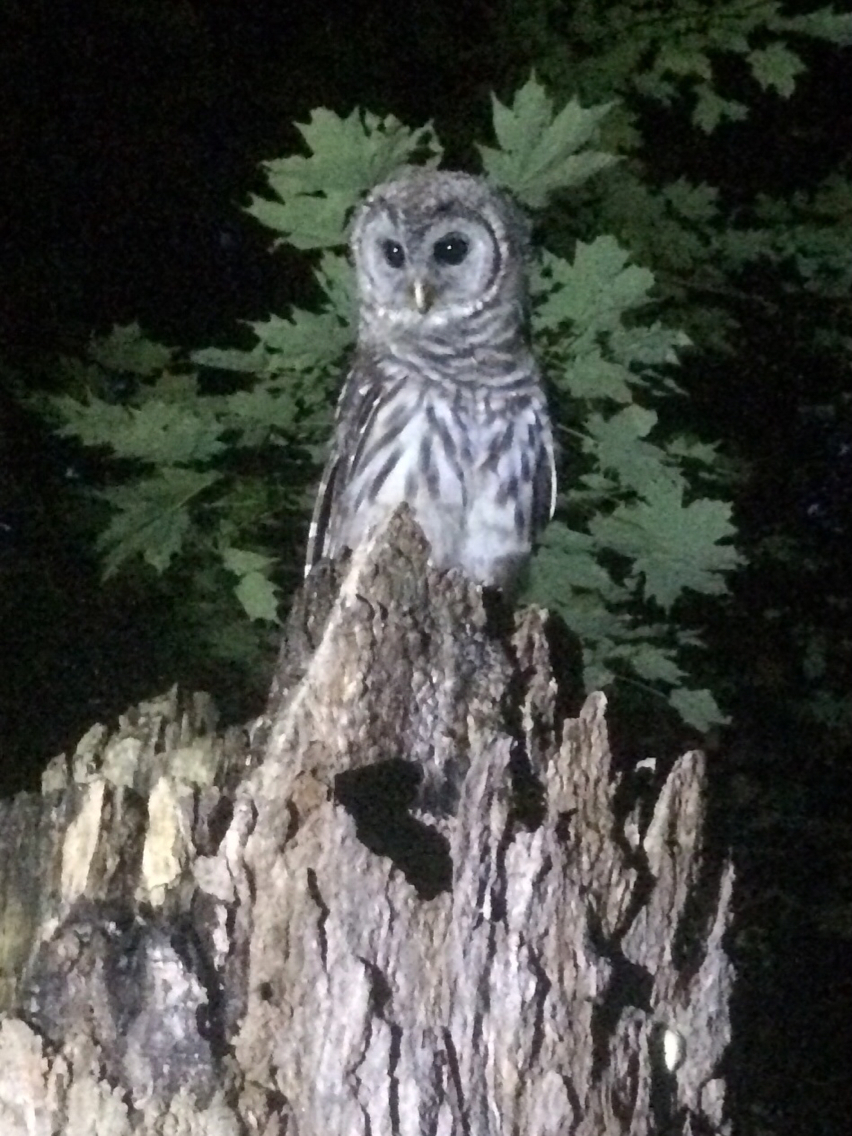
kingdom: Animalia
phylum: Chordata
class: Aves
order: Strigiformes
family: Strigidae
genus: Strix
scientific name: Strix varia
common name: Barred owl
